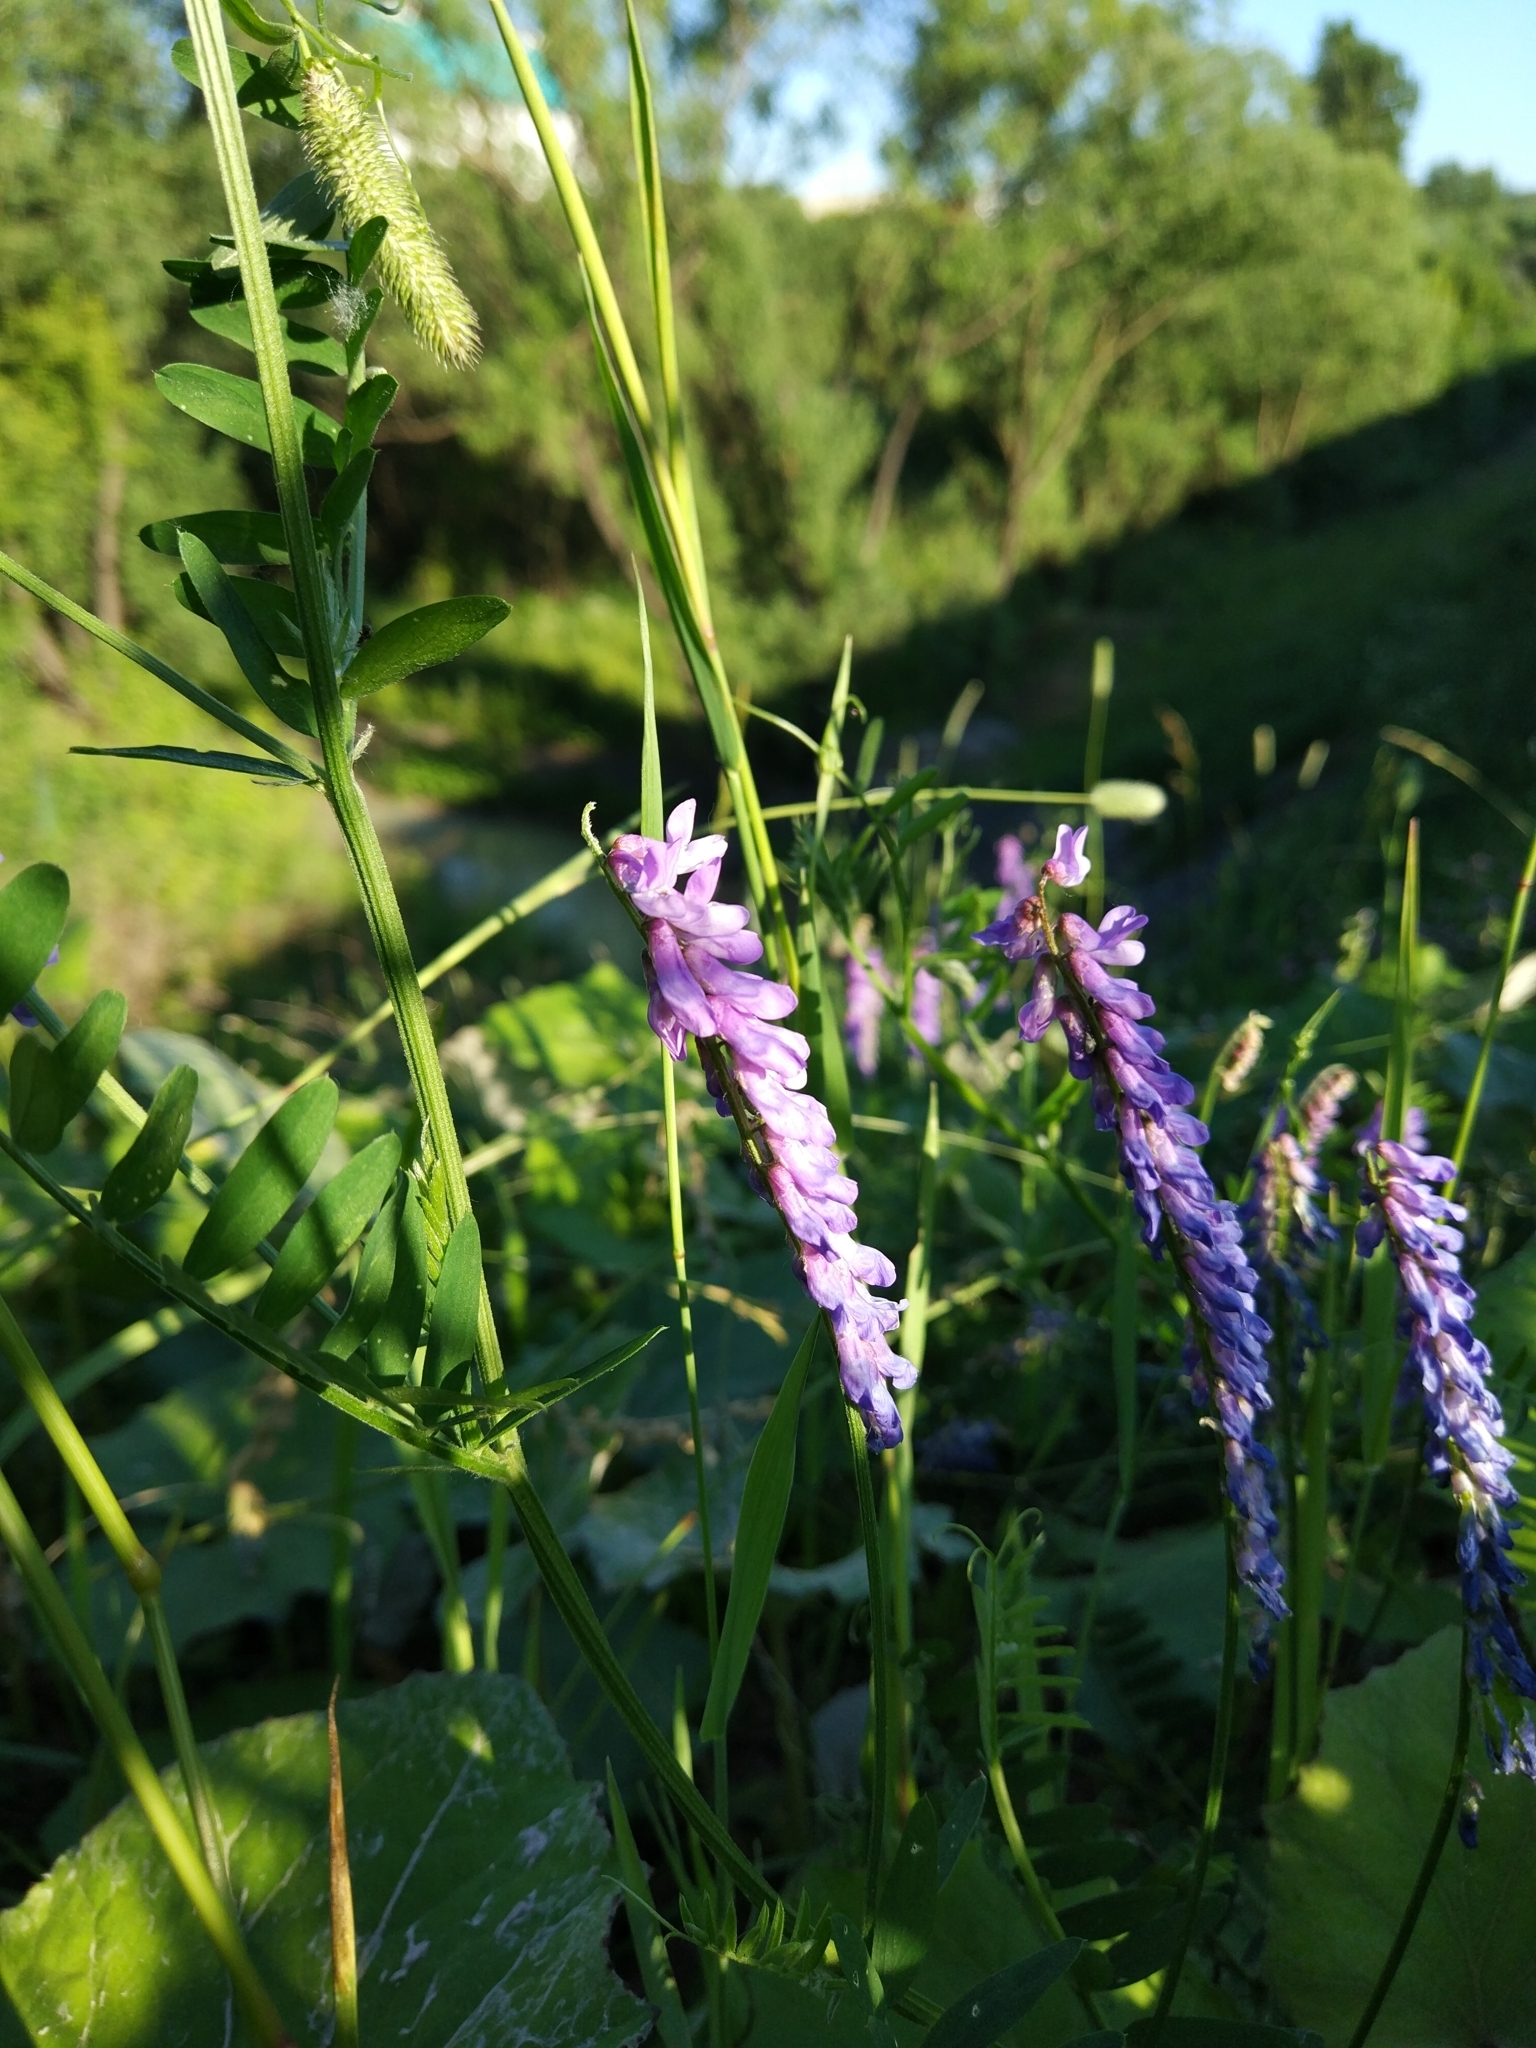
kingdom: Plantae
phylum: Tracheophyta
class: Magnoliopsida
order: Fabales
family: Fabaceae
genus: Vicia
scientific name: Vicia cracca
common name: Bird vetch
